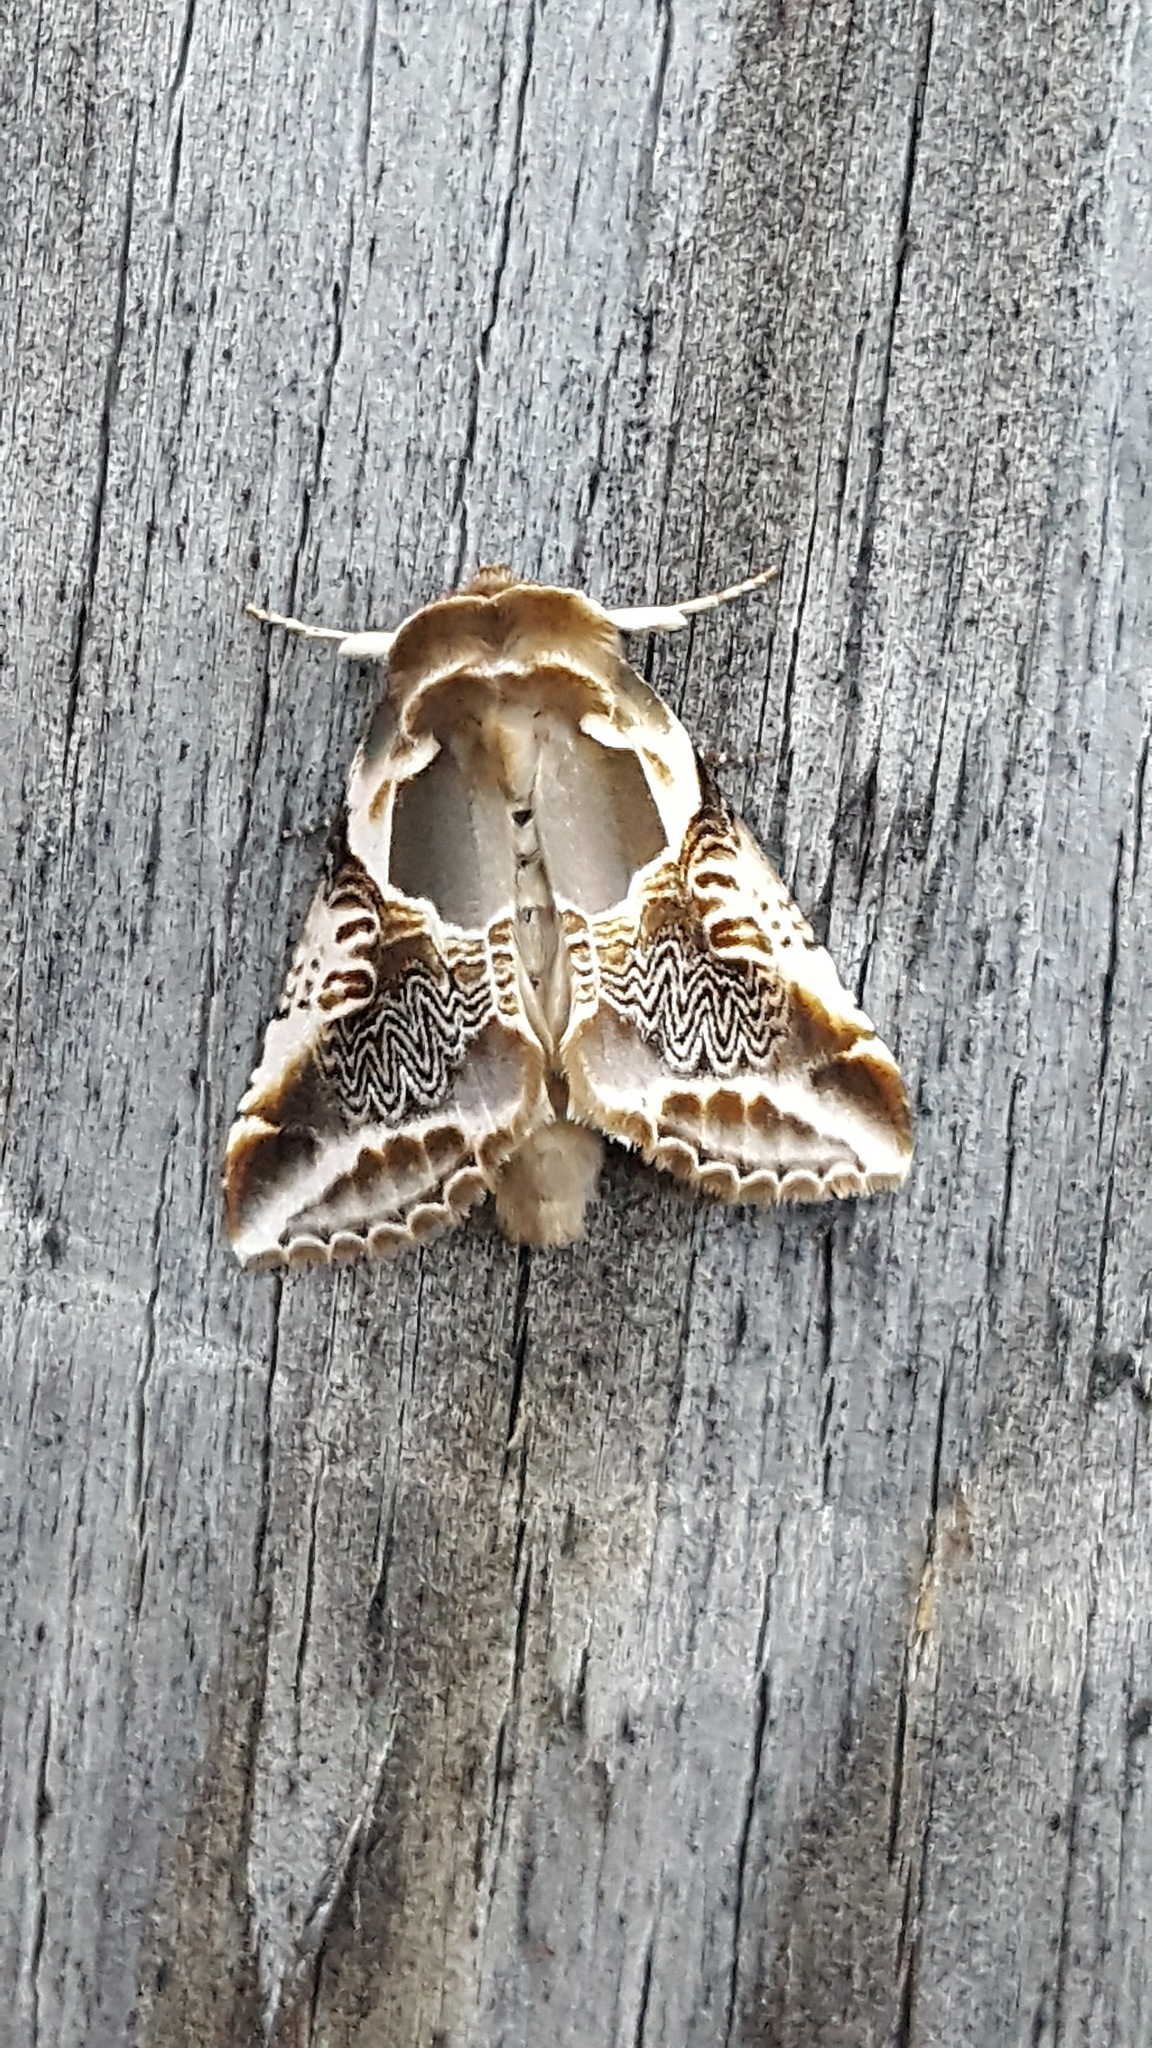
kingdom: Animalia
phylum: Arthropoda
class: Insecta
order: Lepidoptera
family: Drepanidae
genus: Habrosyne
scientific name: Habrosyne scripta
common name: Lettered habrosyne moth
